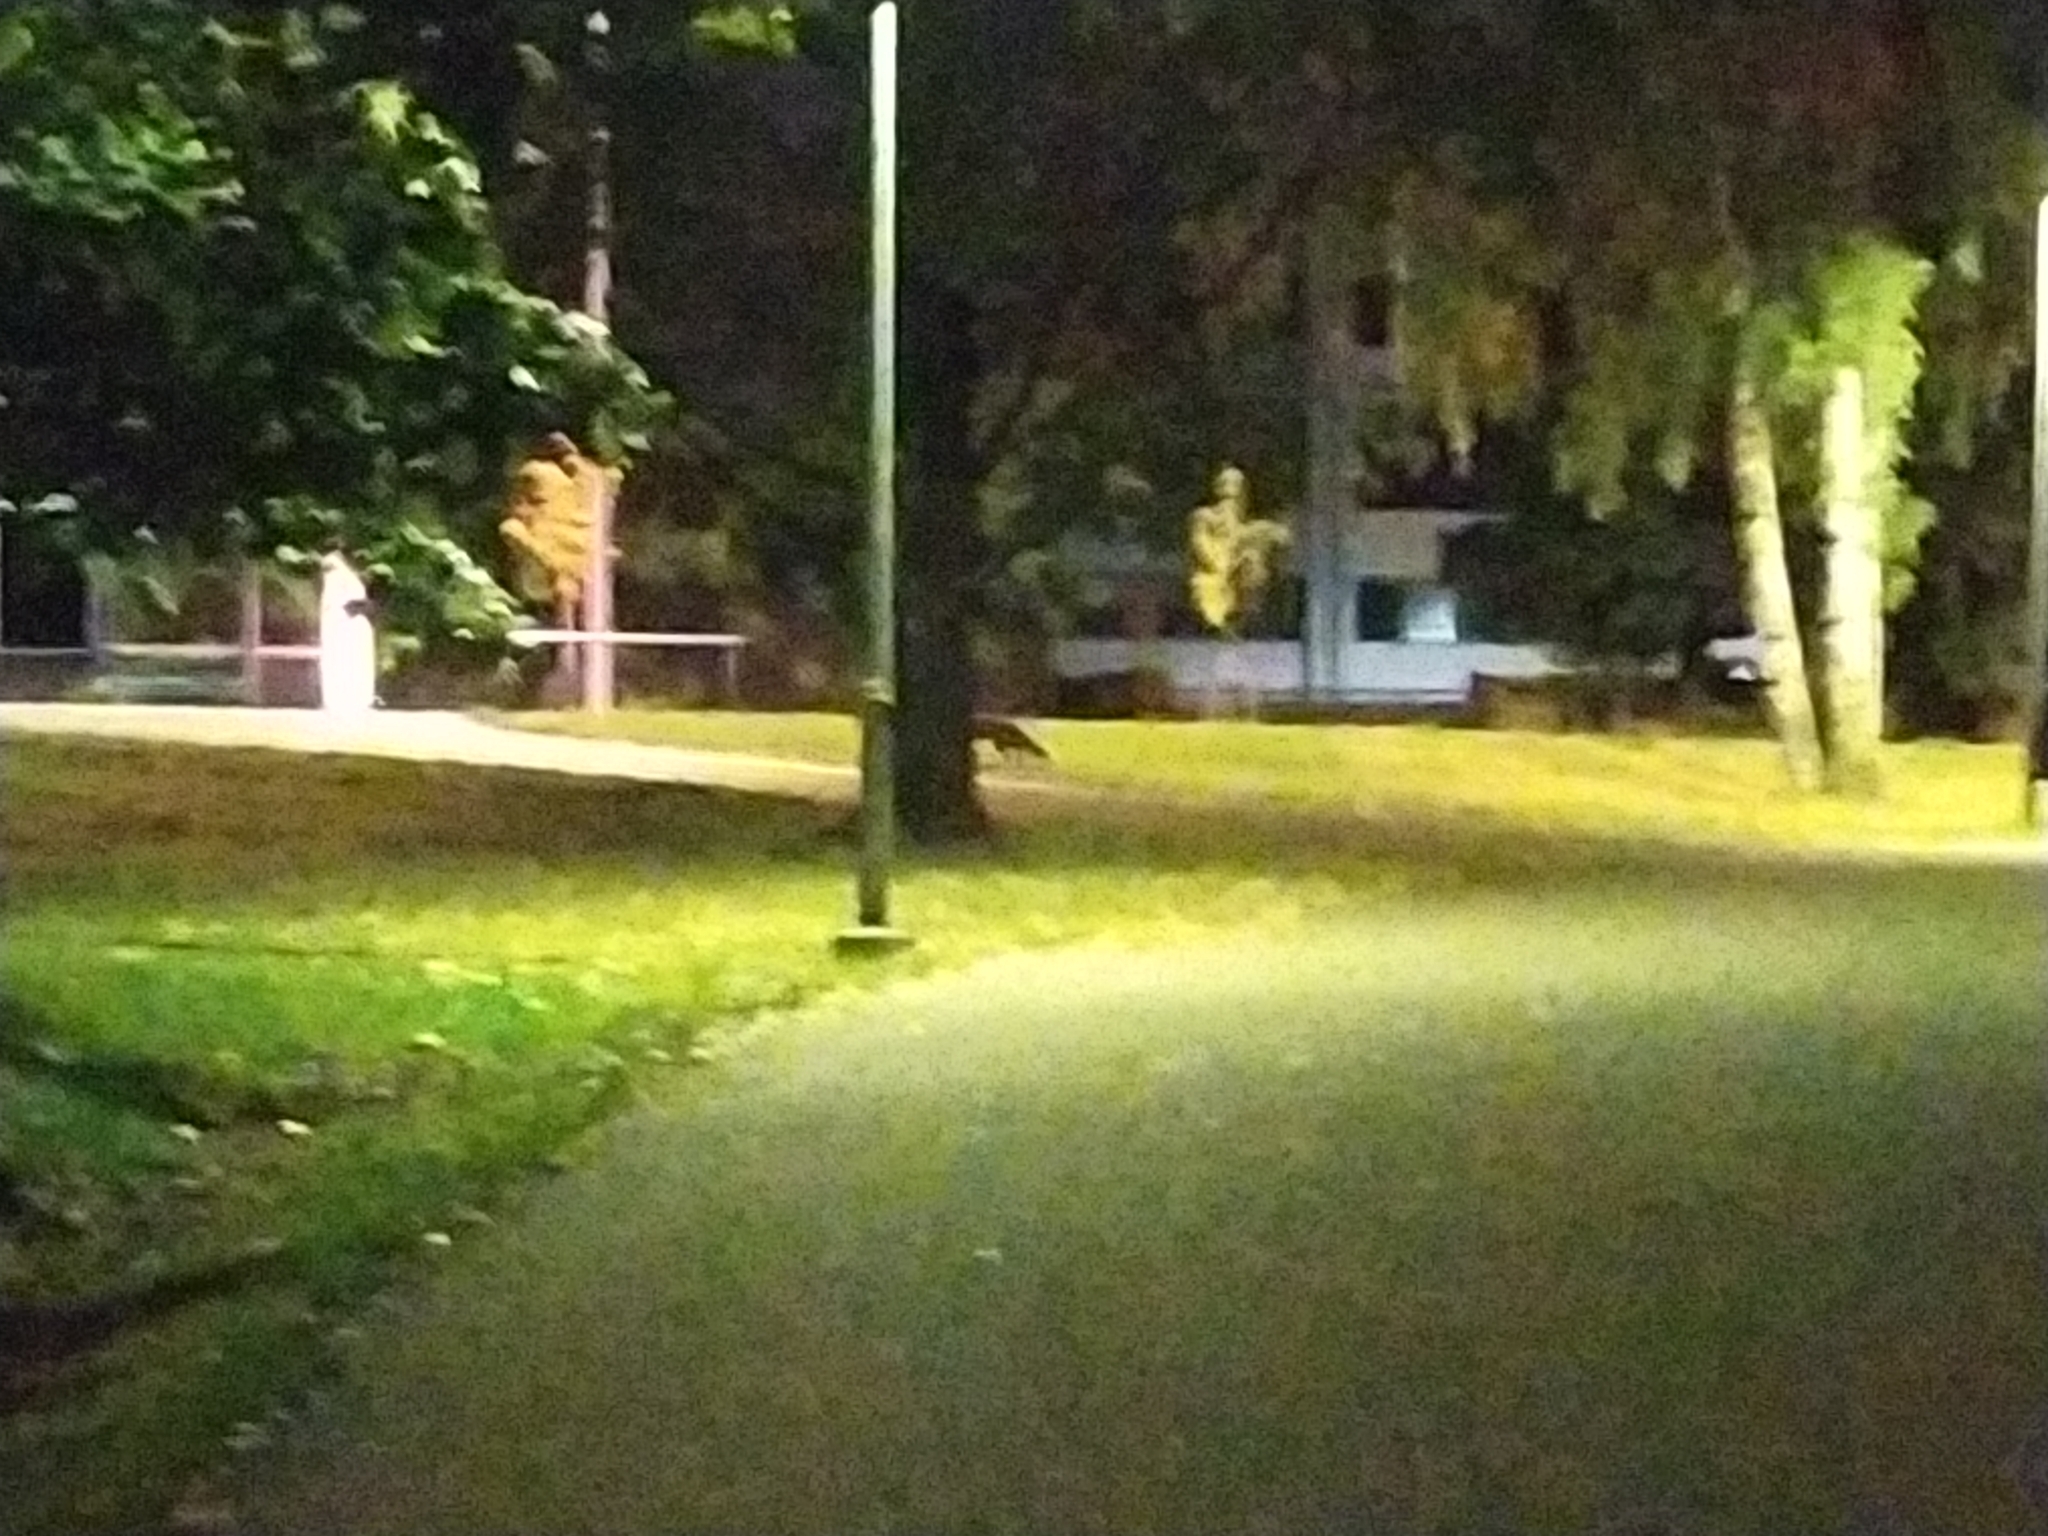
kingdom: Animalia
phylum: Chordata
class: Mammalia
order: Carnivora
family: Canidae
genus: Vulpes
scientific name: Vulpes vulpes
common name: Red fox
